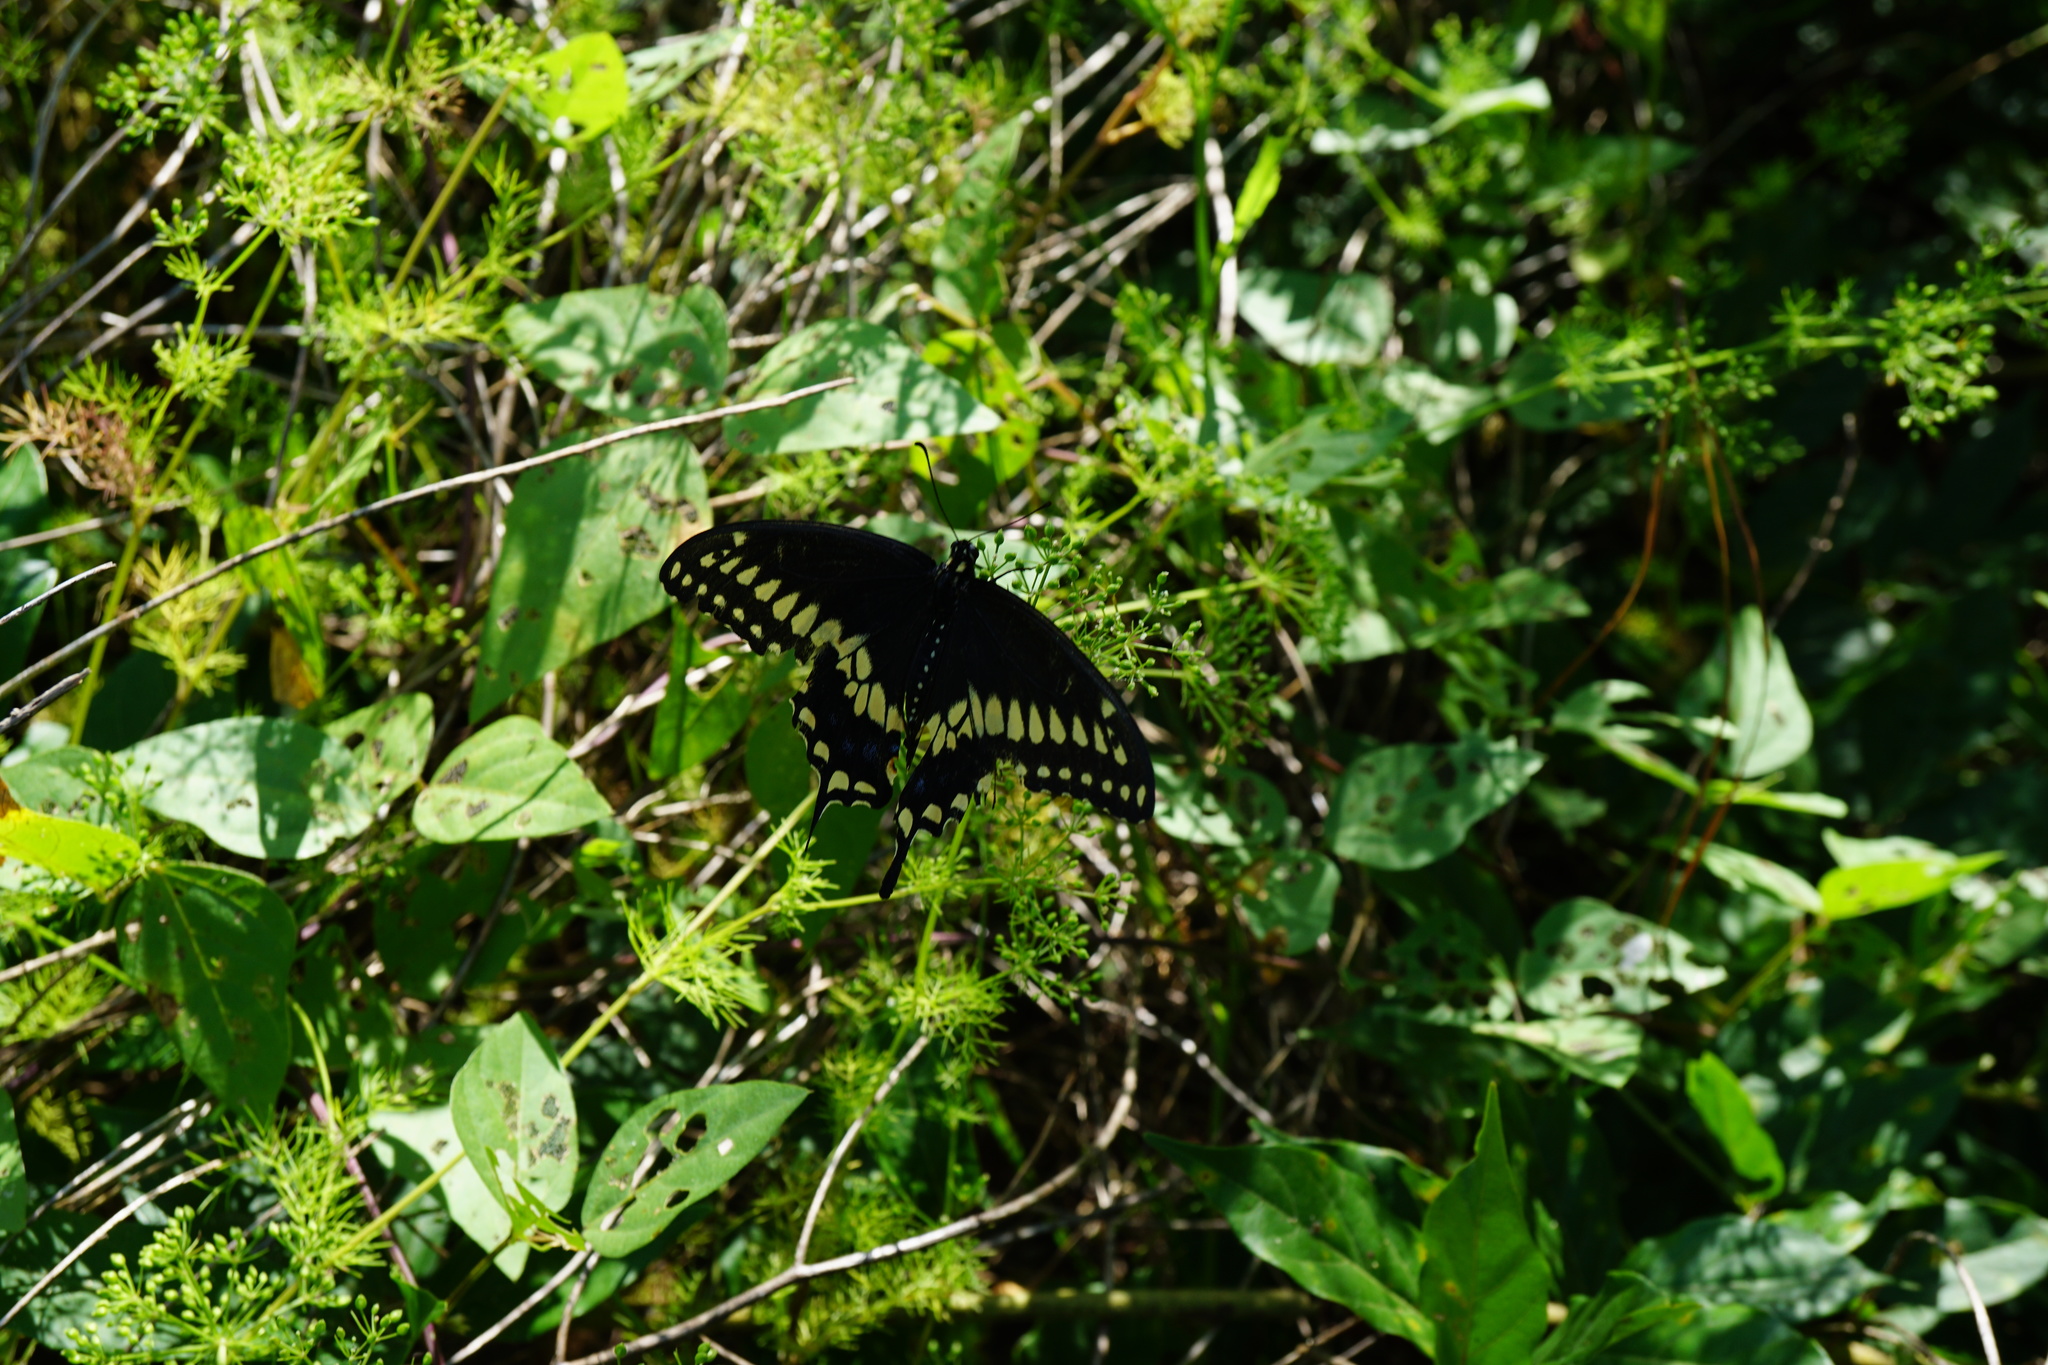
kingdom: Animalia
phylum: Arthropoda
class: Insecta
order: Lepidoptera
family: Papilionidae
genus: Papilio
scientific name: Papilio polyxenes
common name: Black swallowtail
